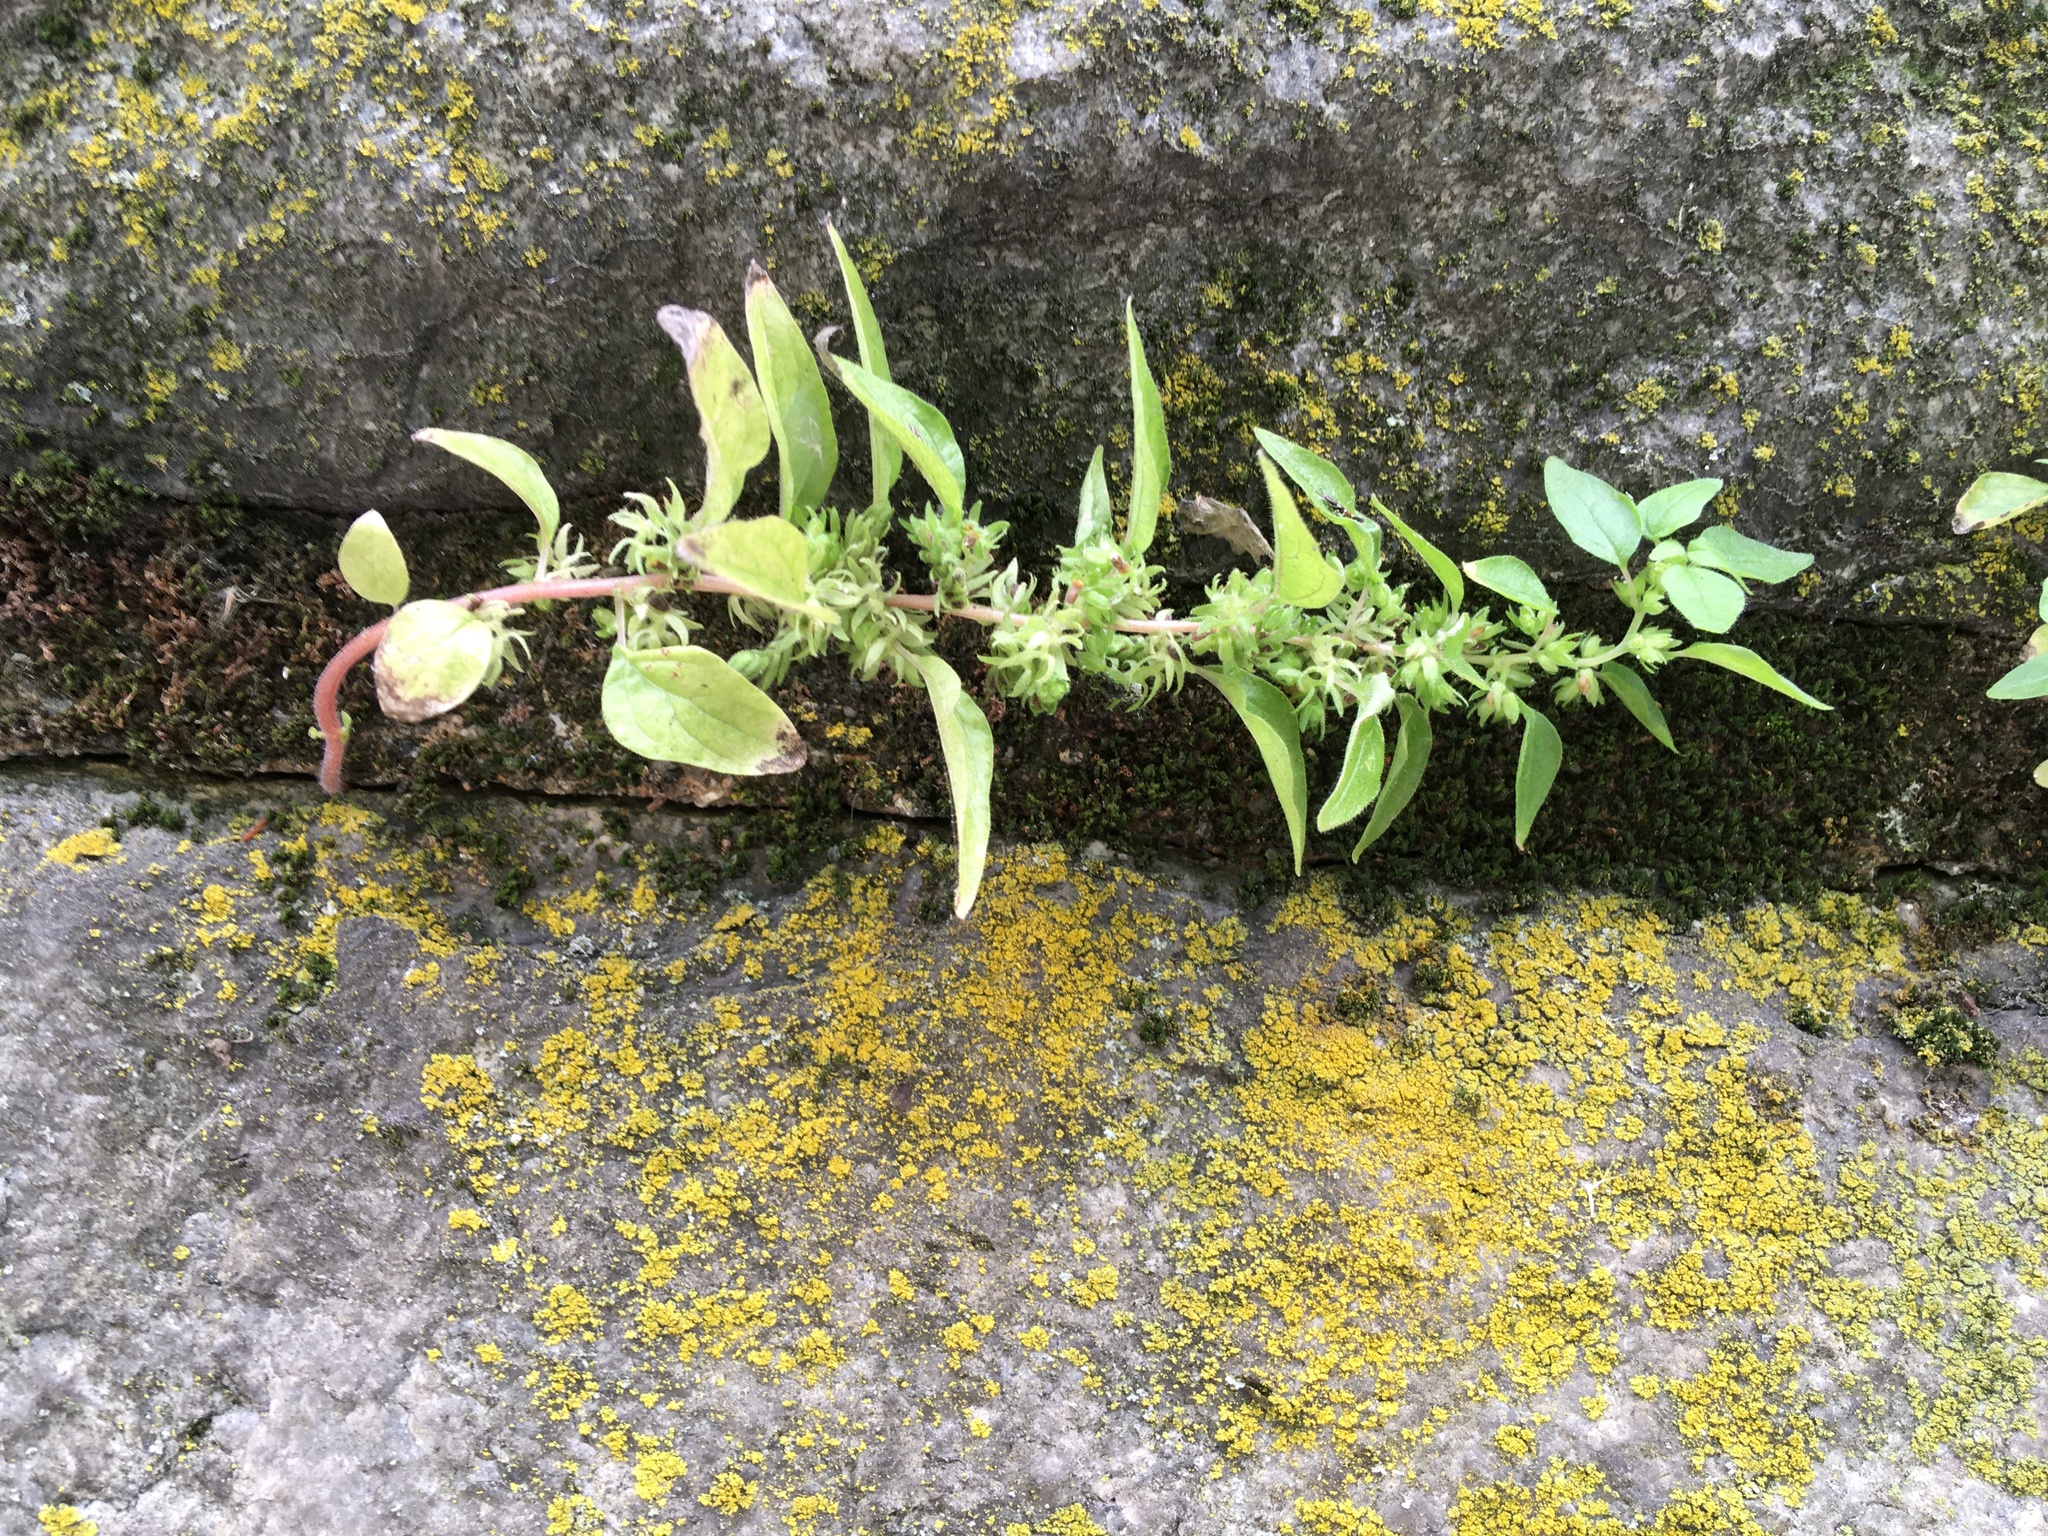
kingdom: Plantae
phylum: Tracheophyta
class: Magnoliopsida
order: Rosales
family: Urticaceae
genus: Parietaria
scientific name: Parietaria pensylvanica
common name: Pennsylvania pellitory
